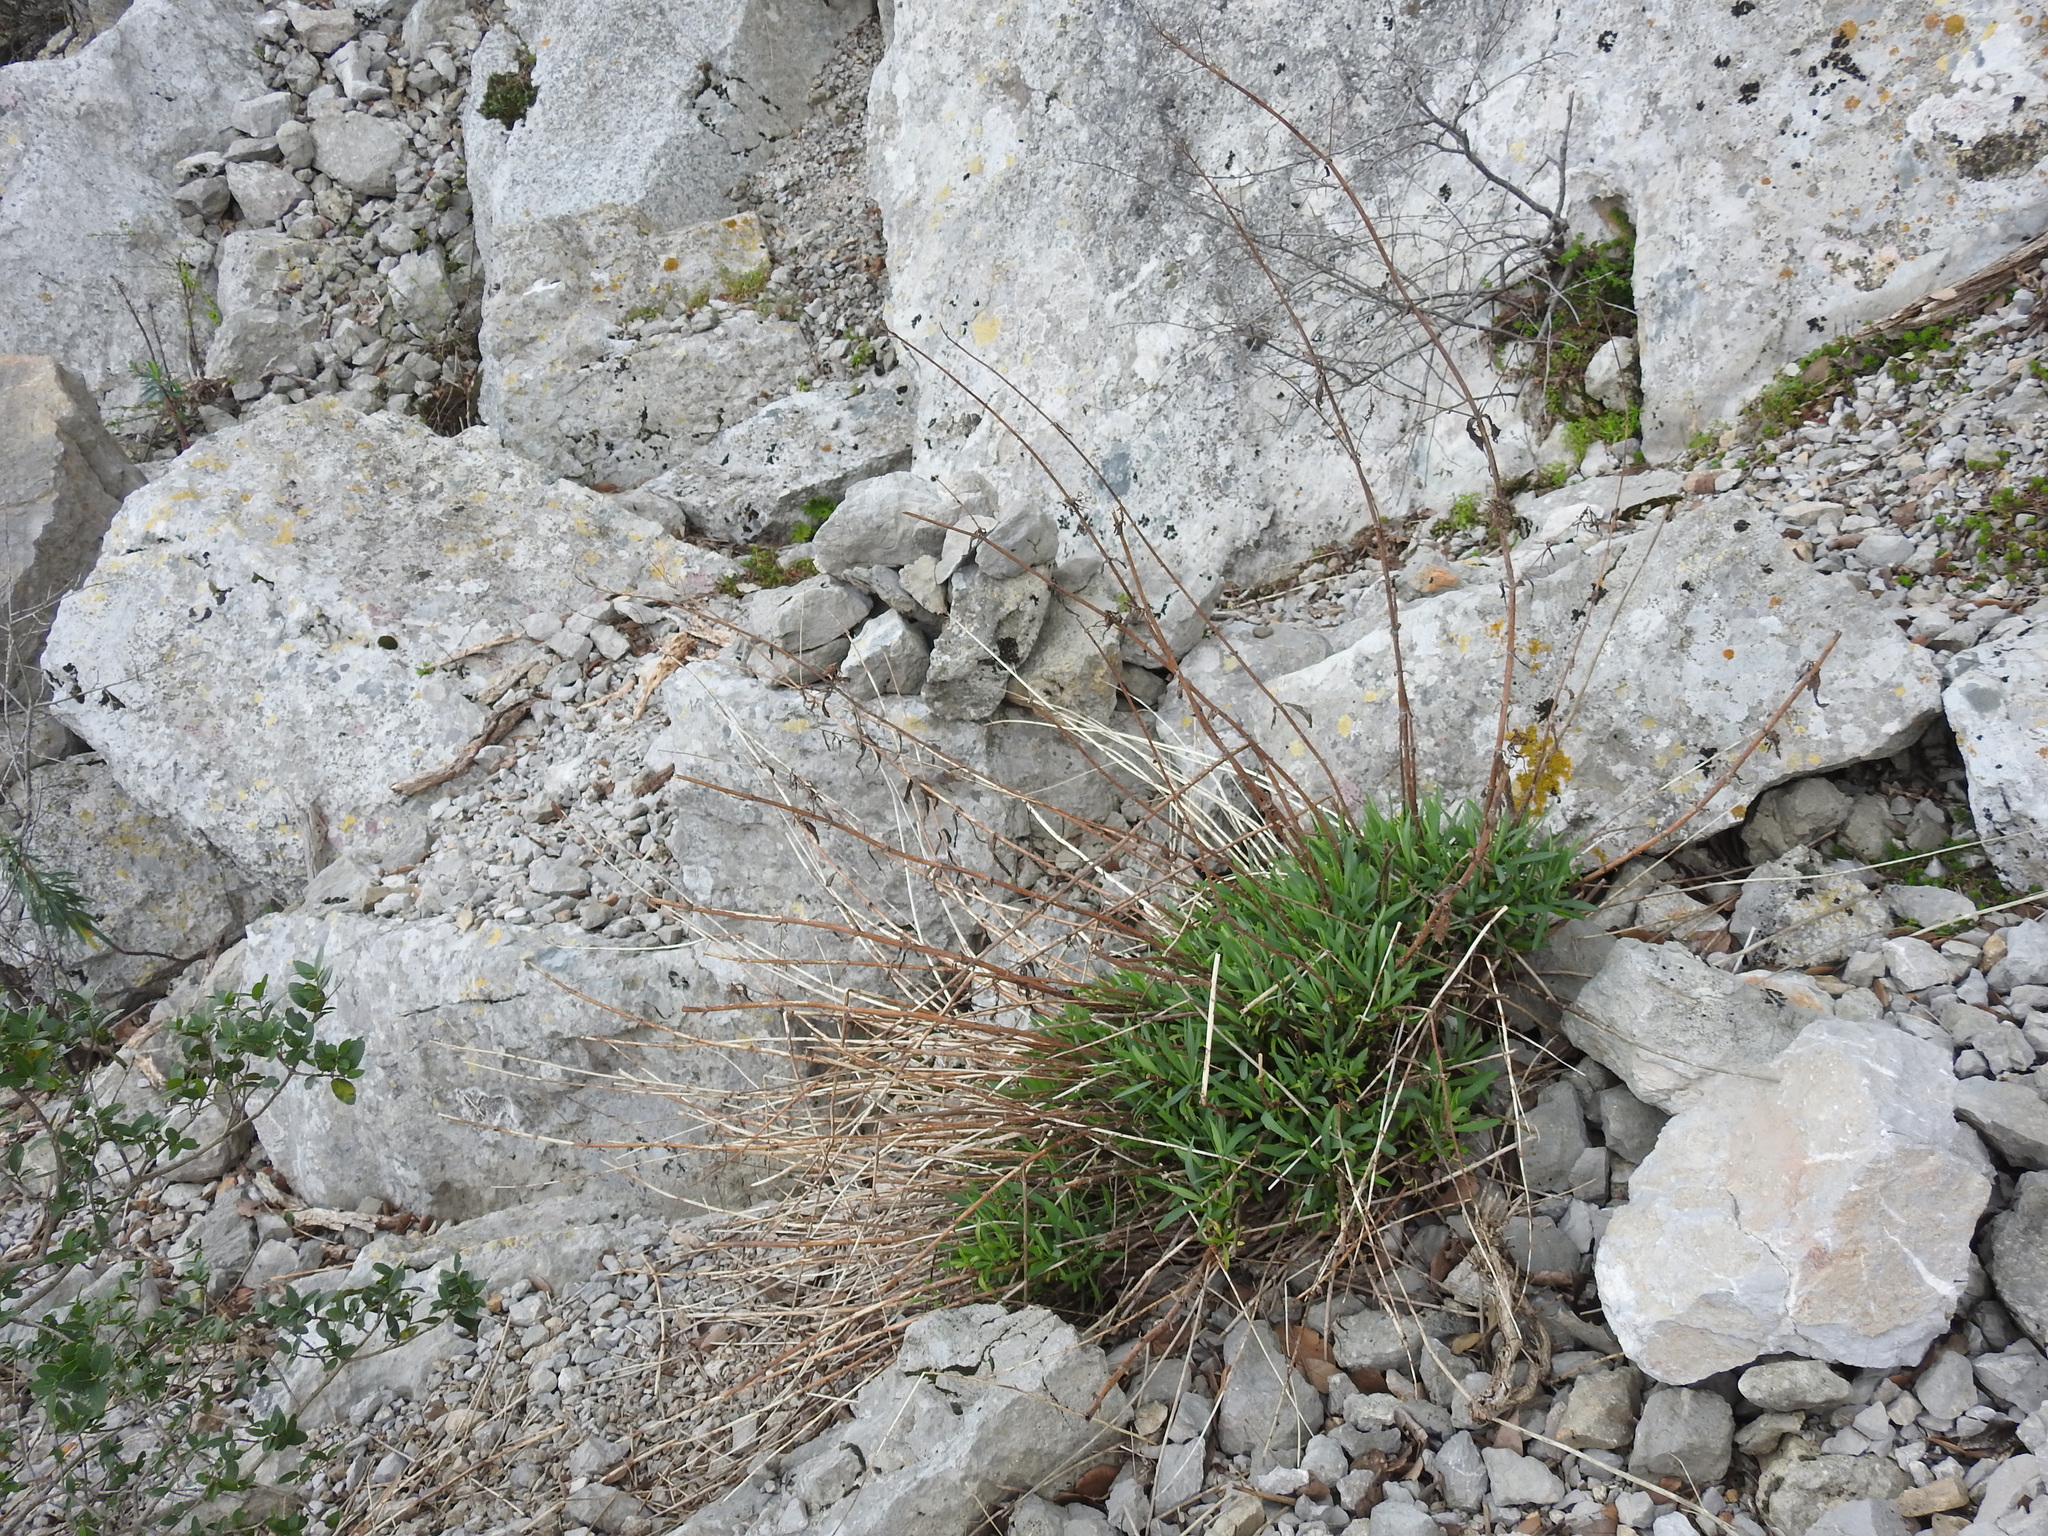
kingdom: Plantae
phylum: Tracheophyta
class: Magnoliopsida
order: Dipsacales
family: Caprifoliaceae
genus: Centranthus
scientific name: Centranthus lecoqii
